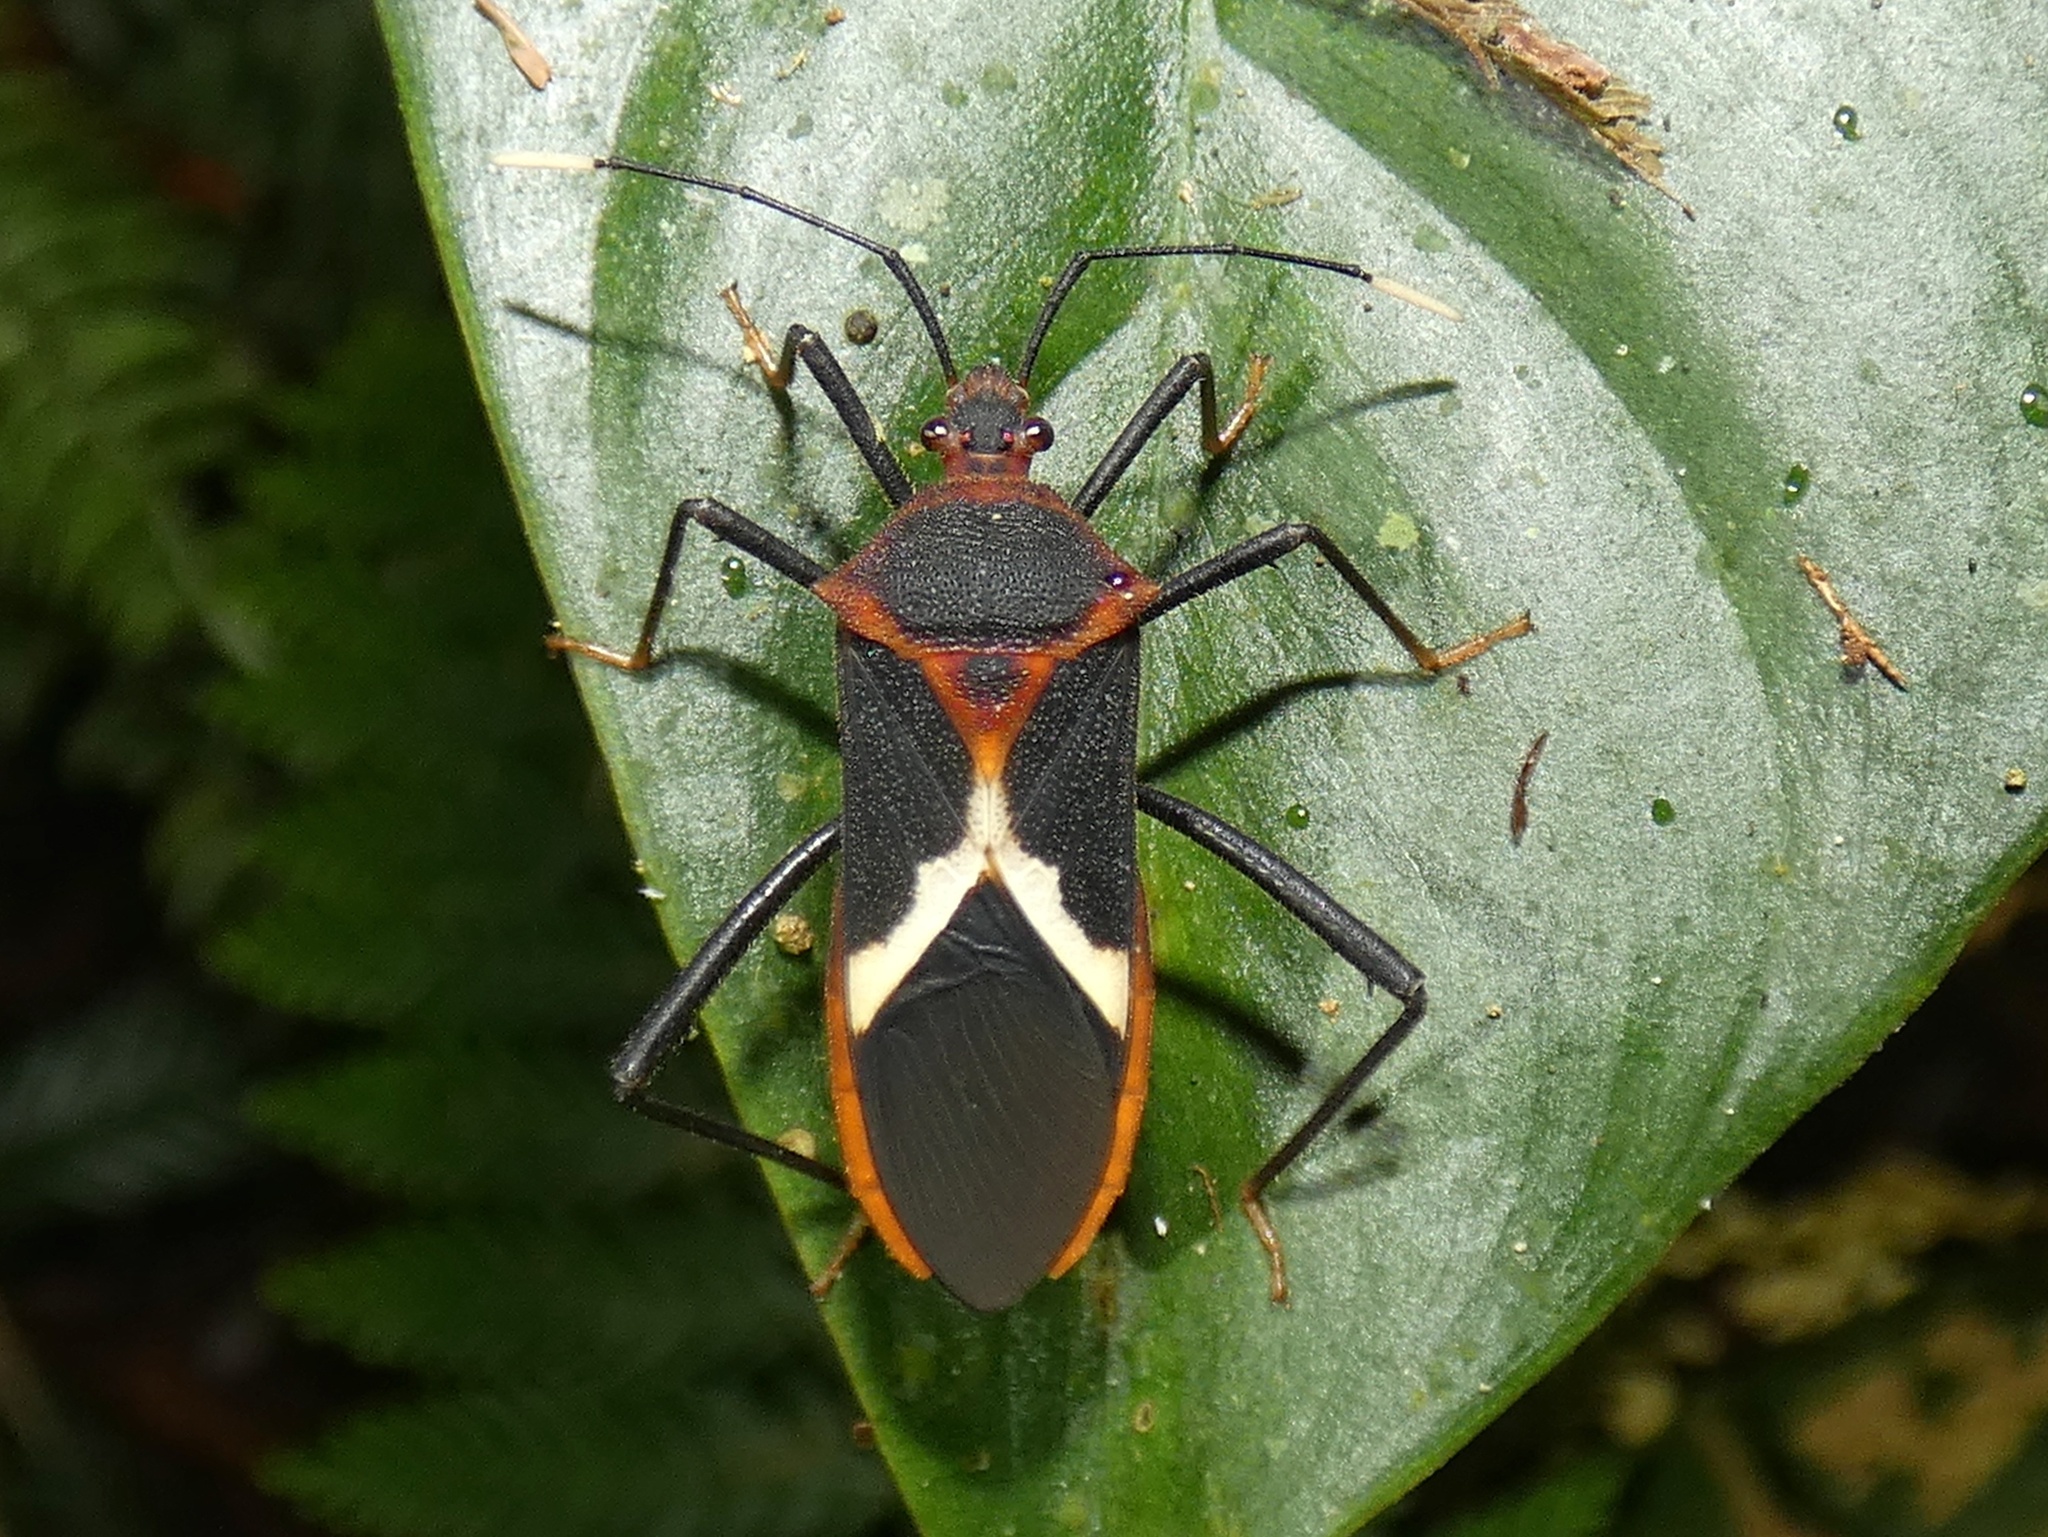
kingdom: Animalia
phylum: Arthropoda
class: Insecta
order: Hemiptera
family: Coreidae
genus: Leptoscelis
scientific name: Leptoscelis tricolor
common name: Heliconia bug
